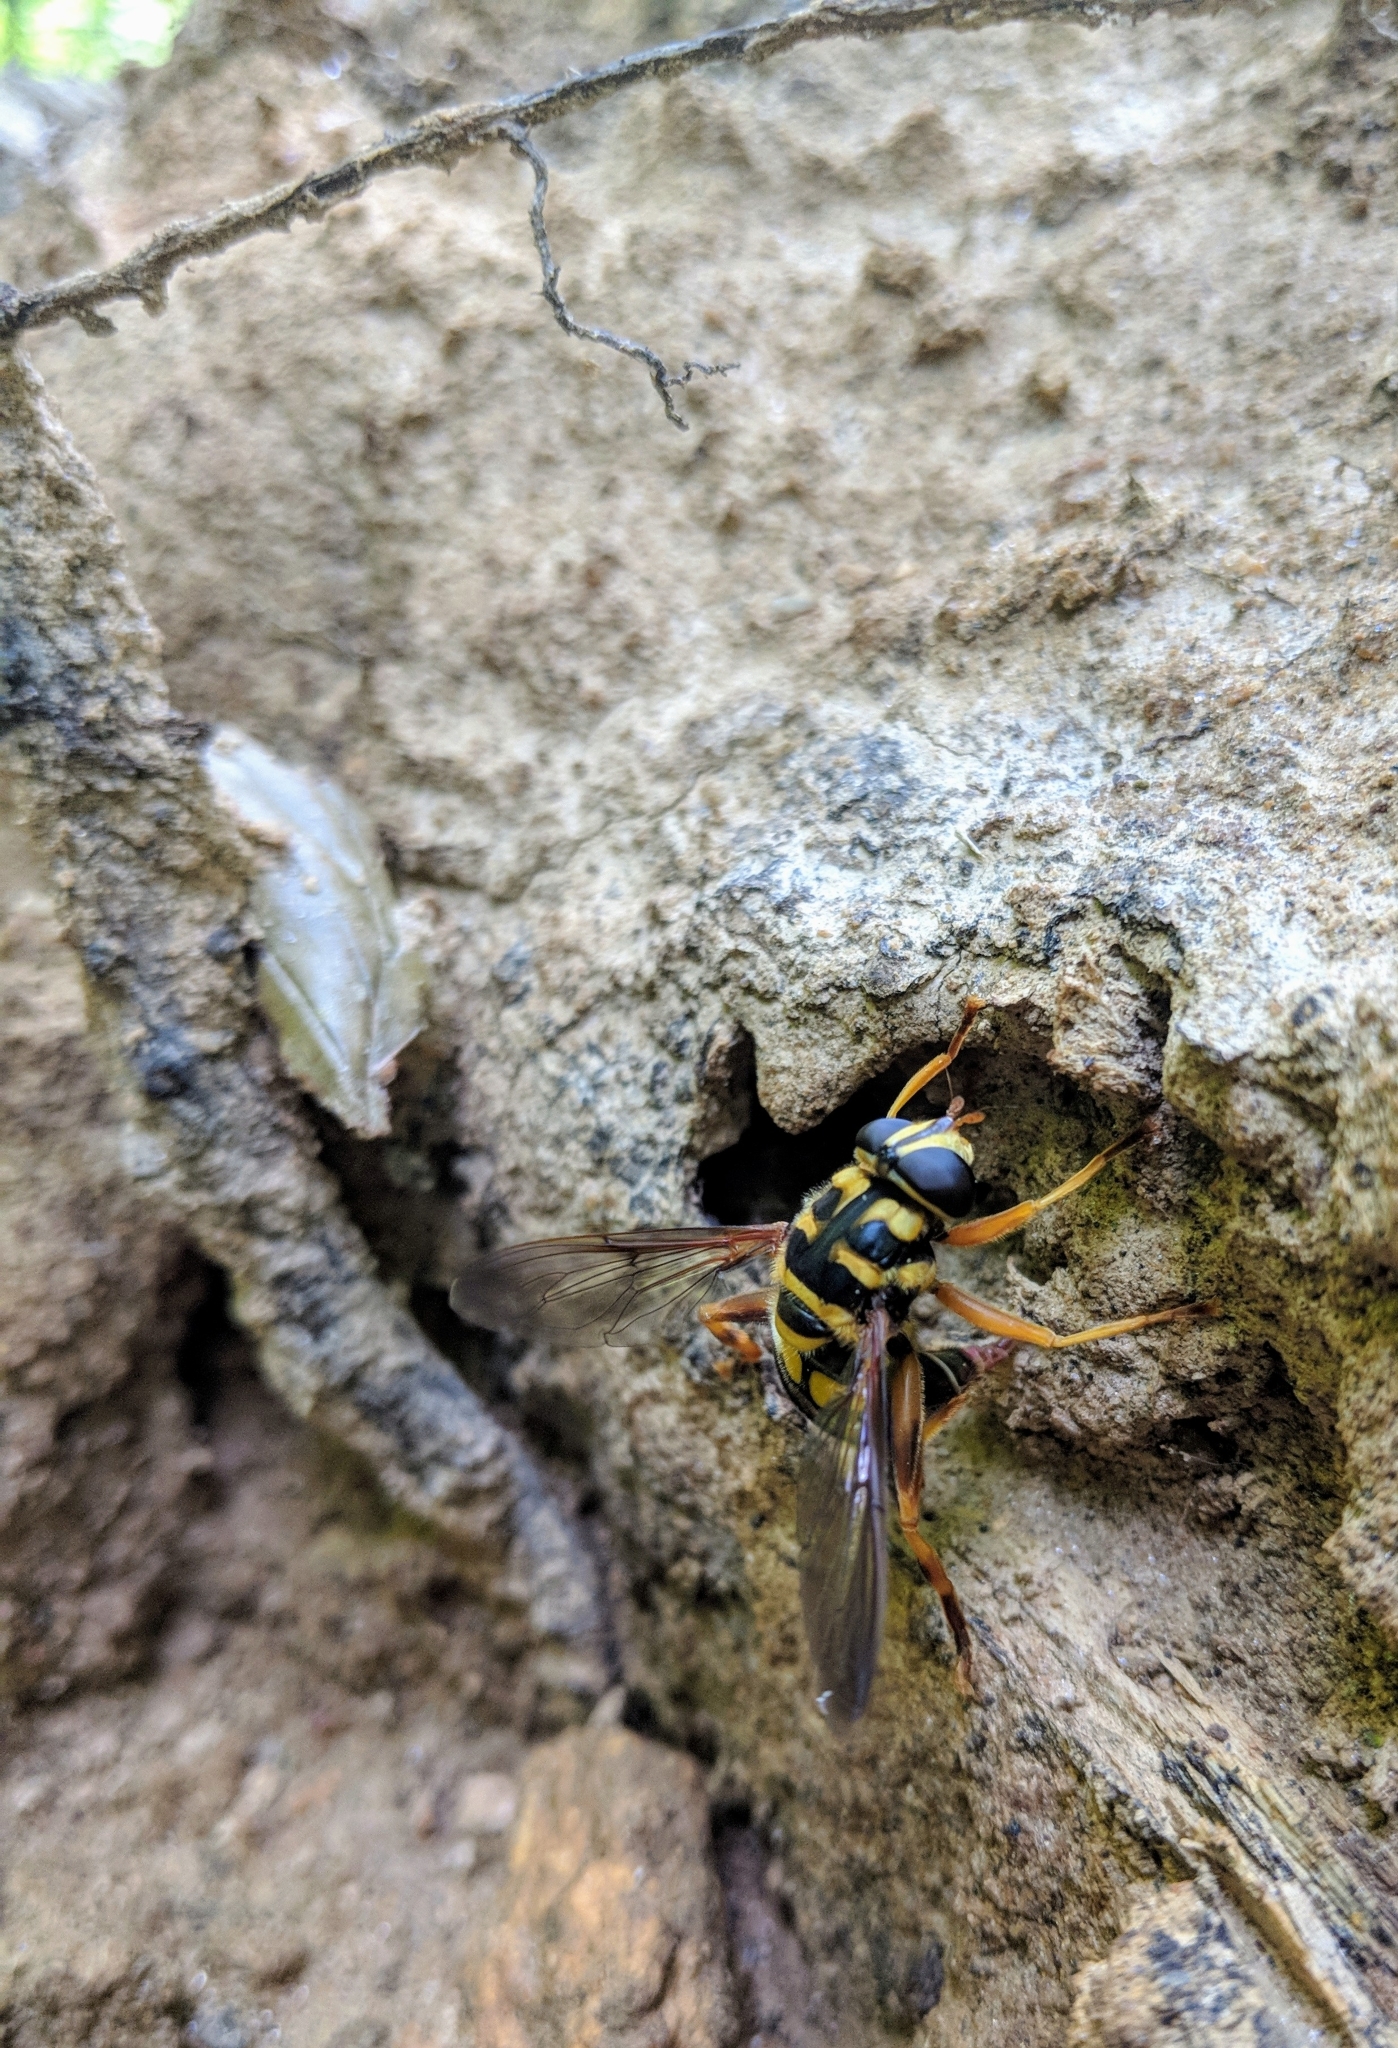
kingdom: Animalia
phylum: Arthropoda
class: Insecta
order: Diptera
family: Syrphidae
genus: Milesia
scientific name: Milesia virginiensis
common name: Virginia giant
